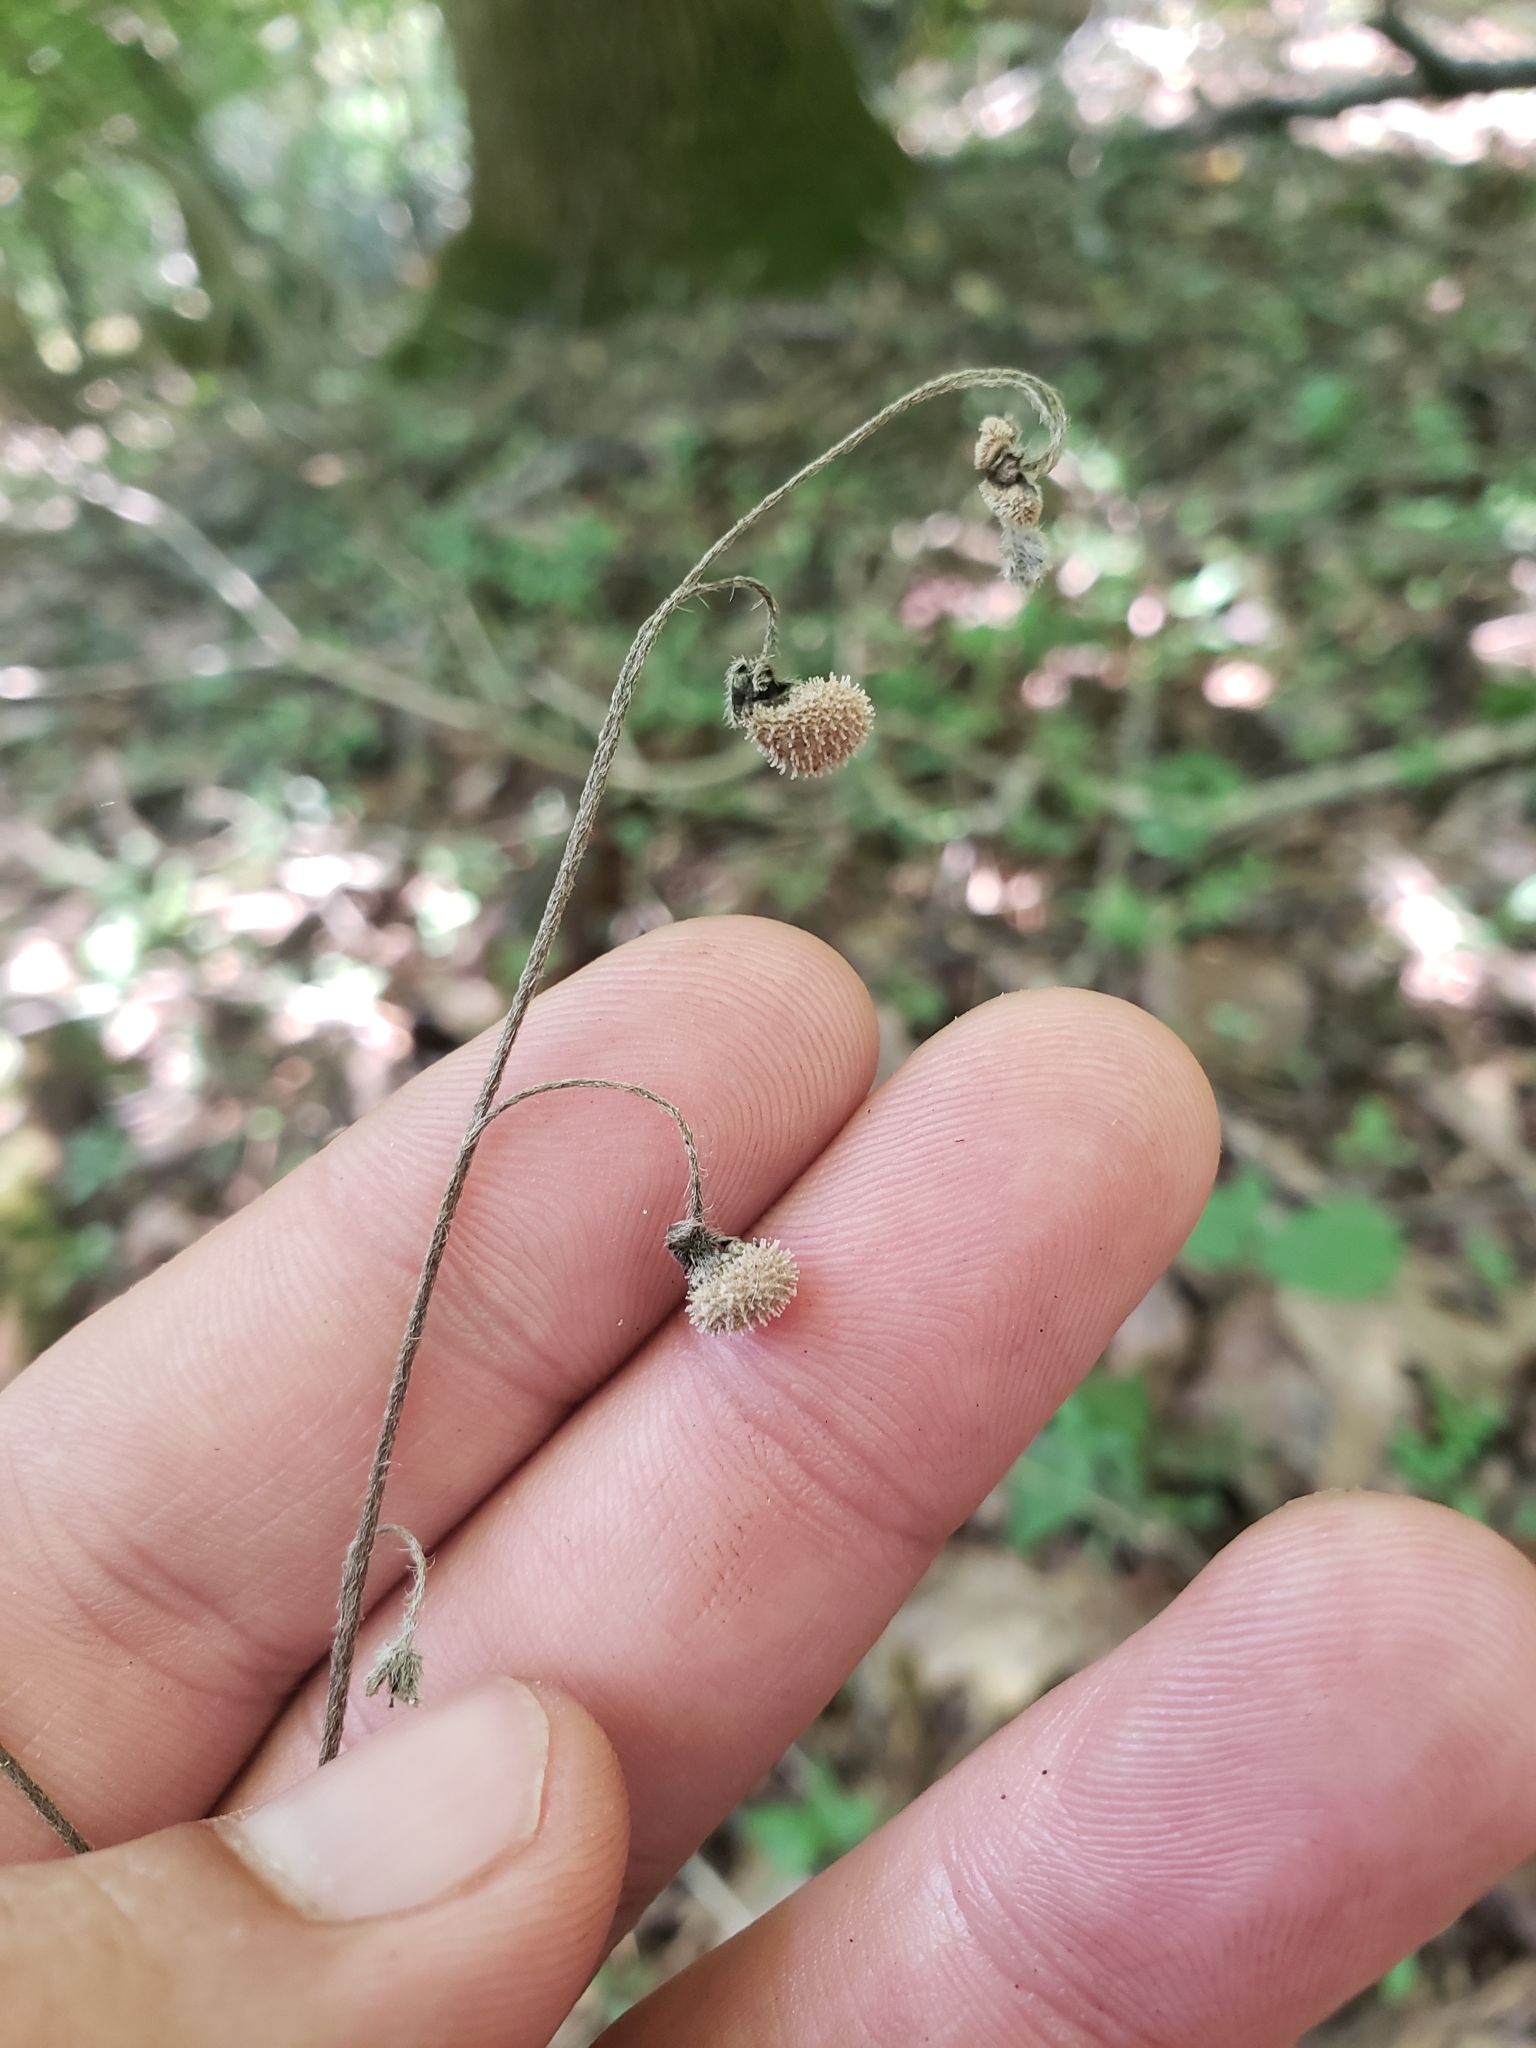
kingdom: Plantae
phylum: Tracheophyta
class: Magnoliopsida
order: Boraginales
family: Boraginaceae
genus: Andersonglossum
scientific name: Andersonglossum virginianum
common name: Wild comfrey
